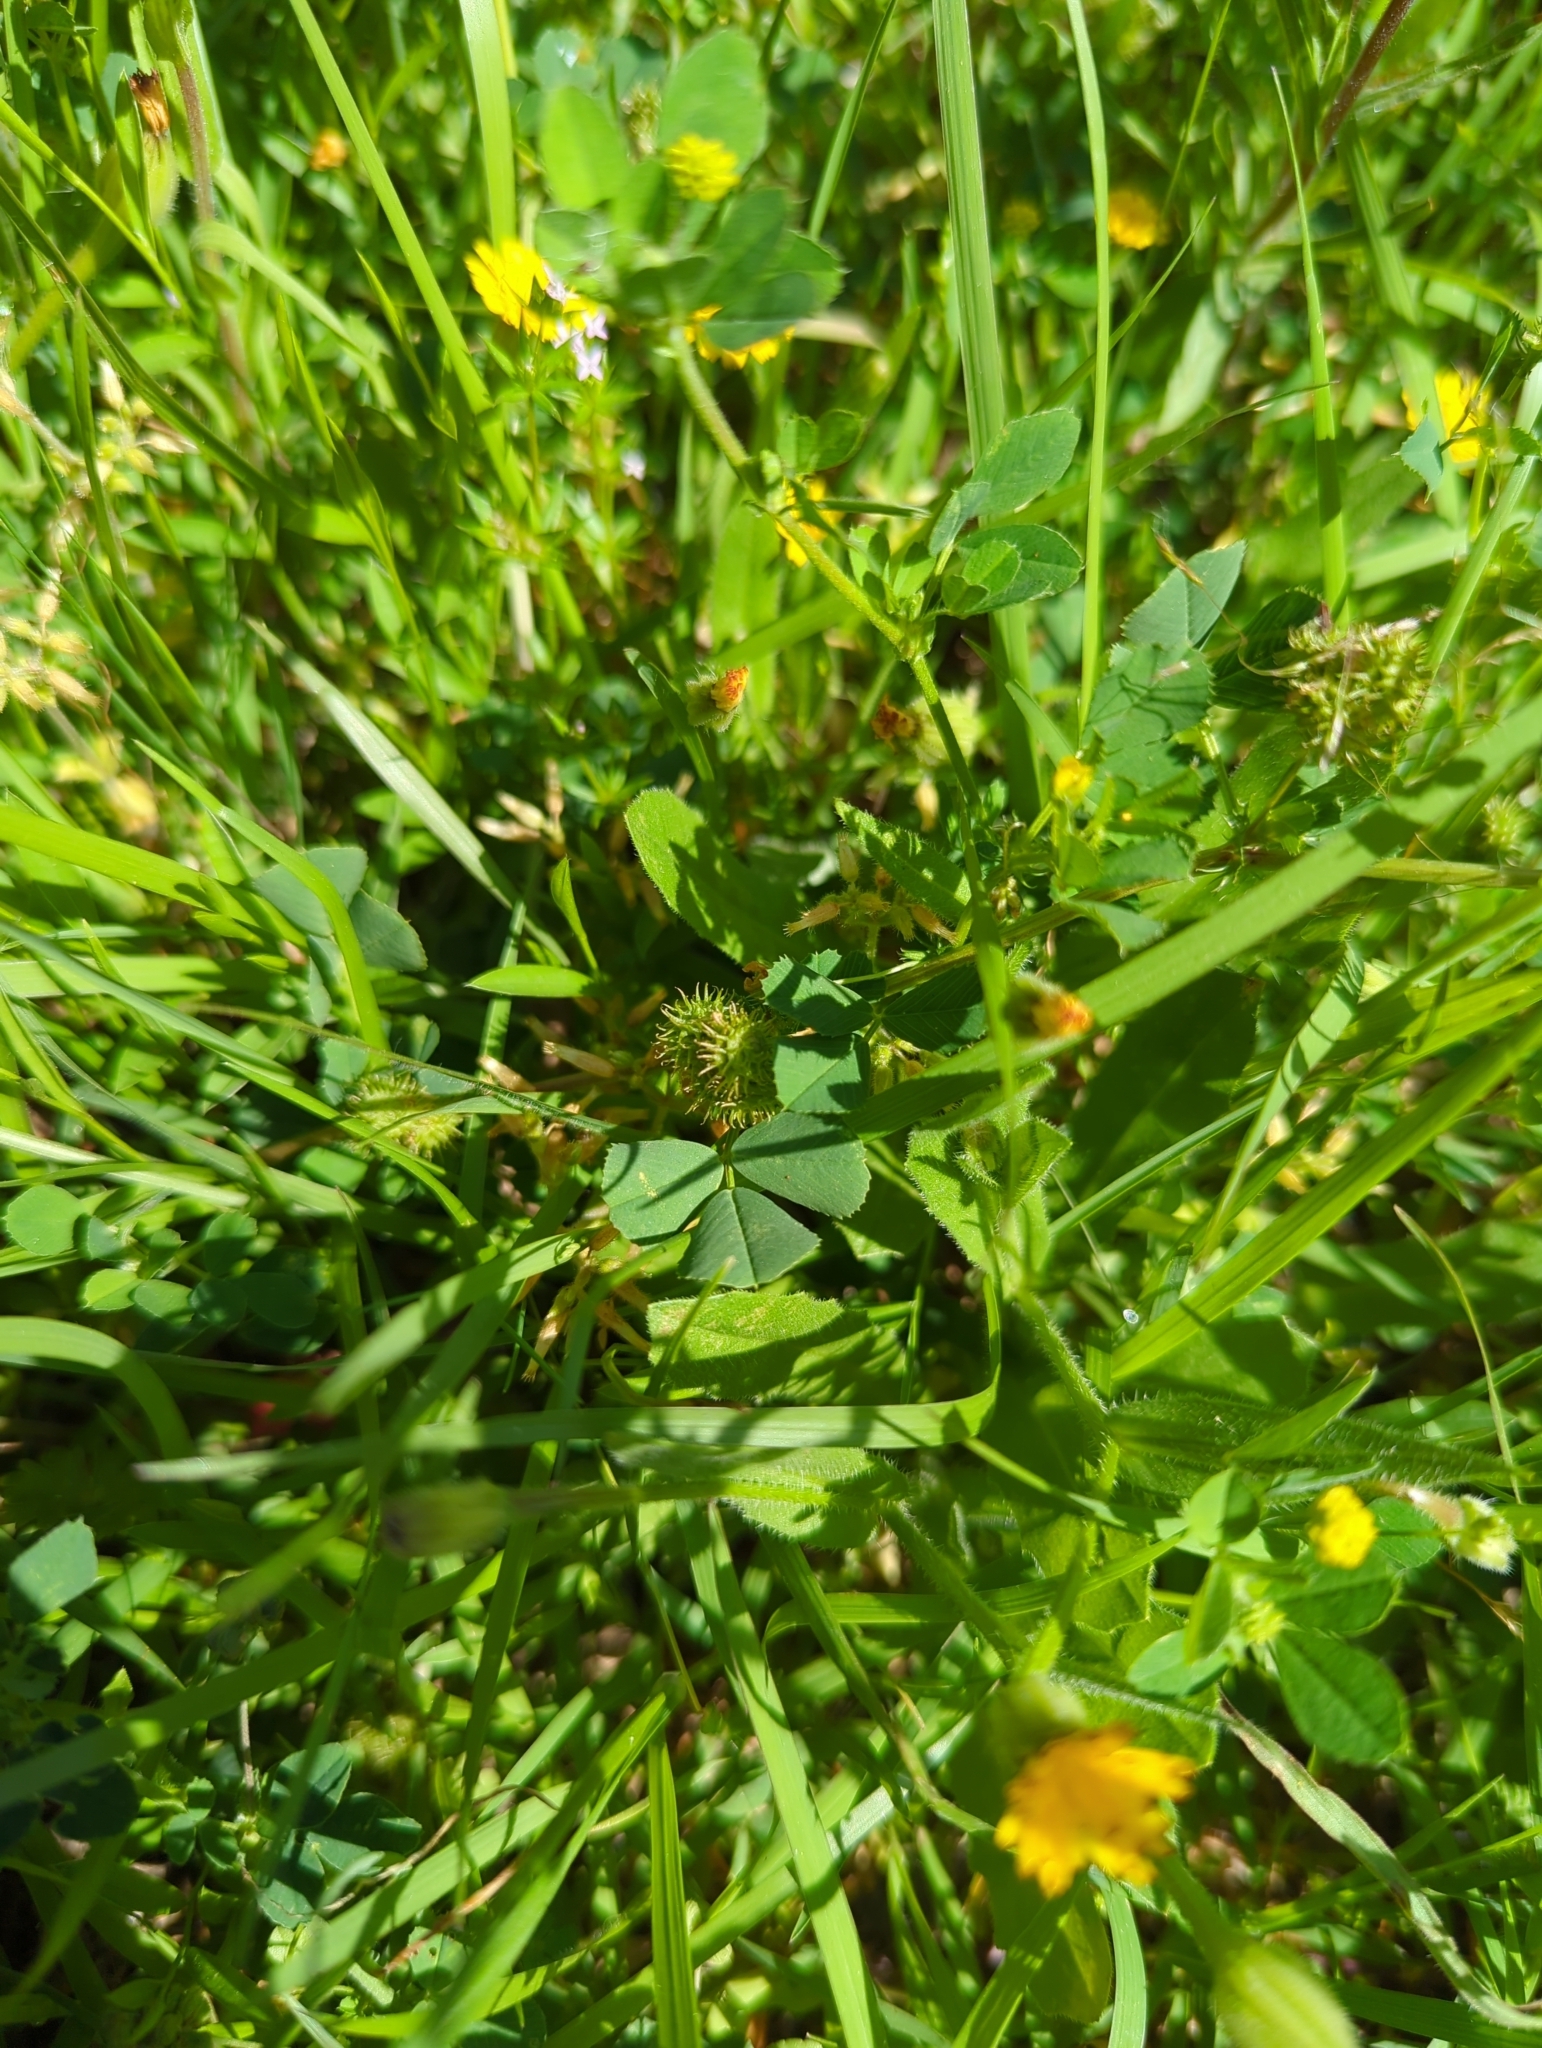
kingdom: Plantae
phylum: Tracheophyta
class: Magnoliopsida
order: Fabales
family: Fabaceae
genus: Medicago
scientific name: Medicago polymorpha
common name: Burclover
